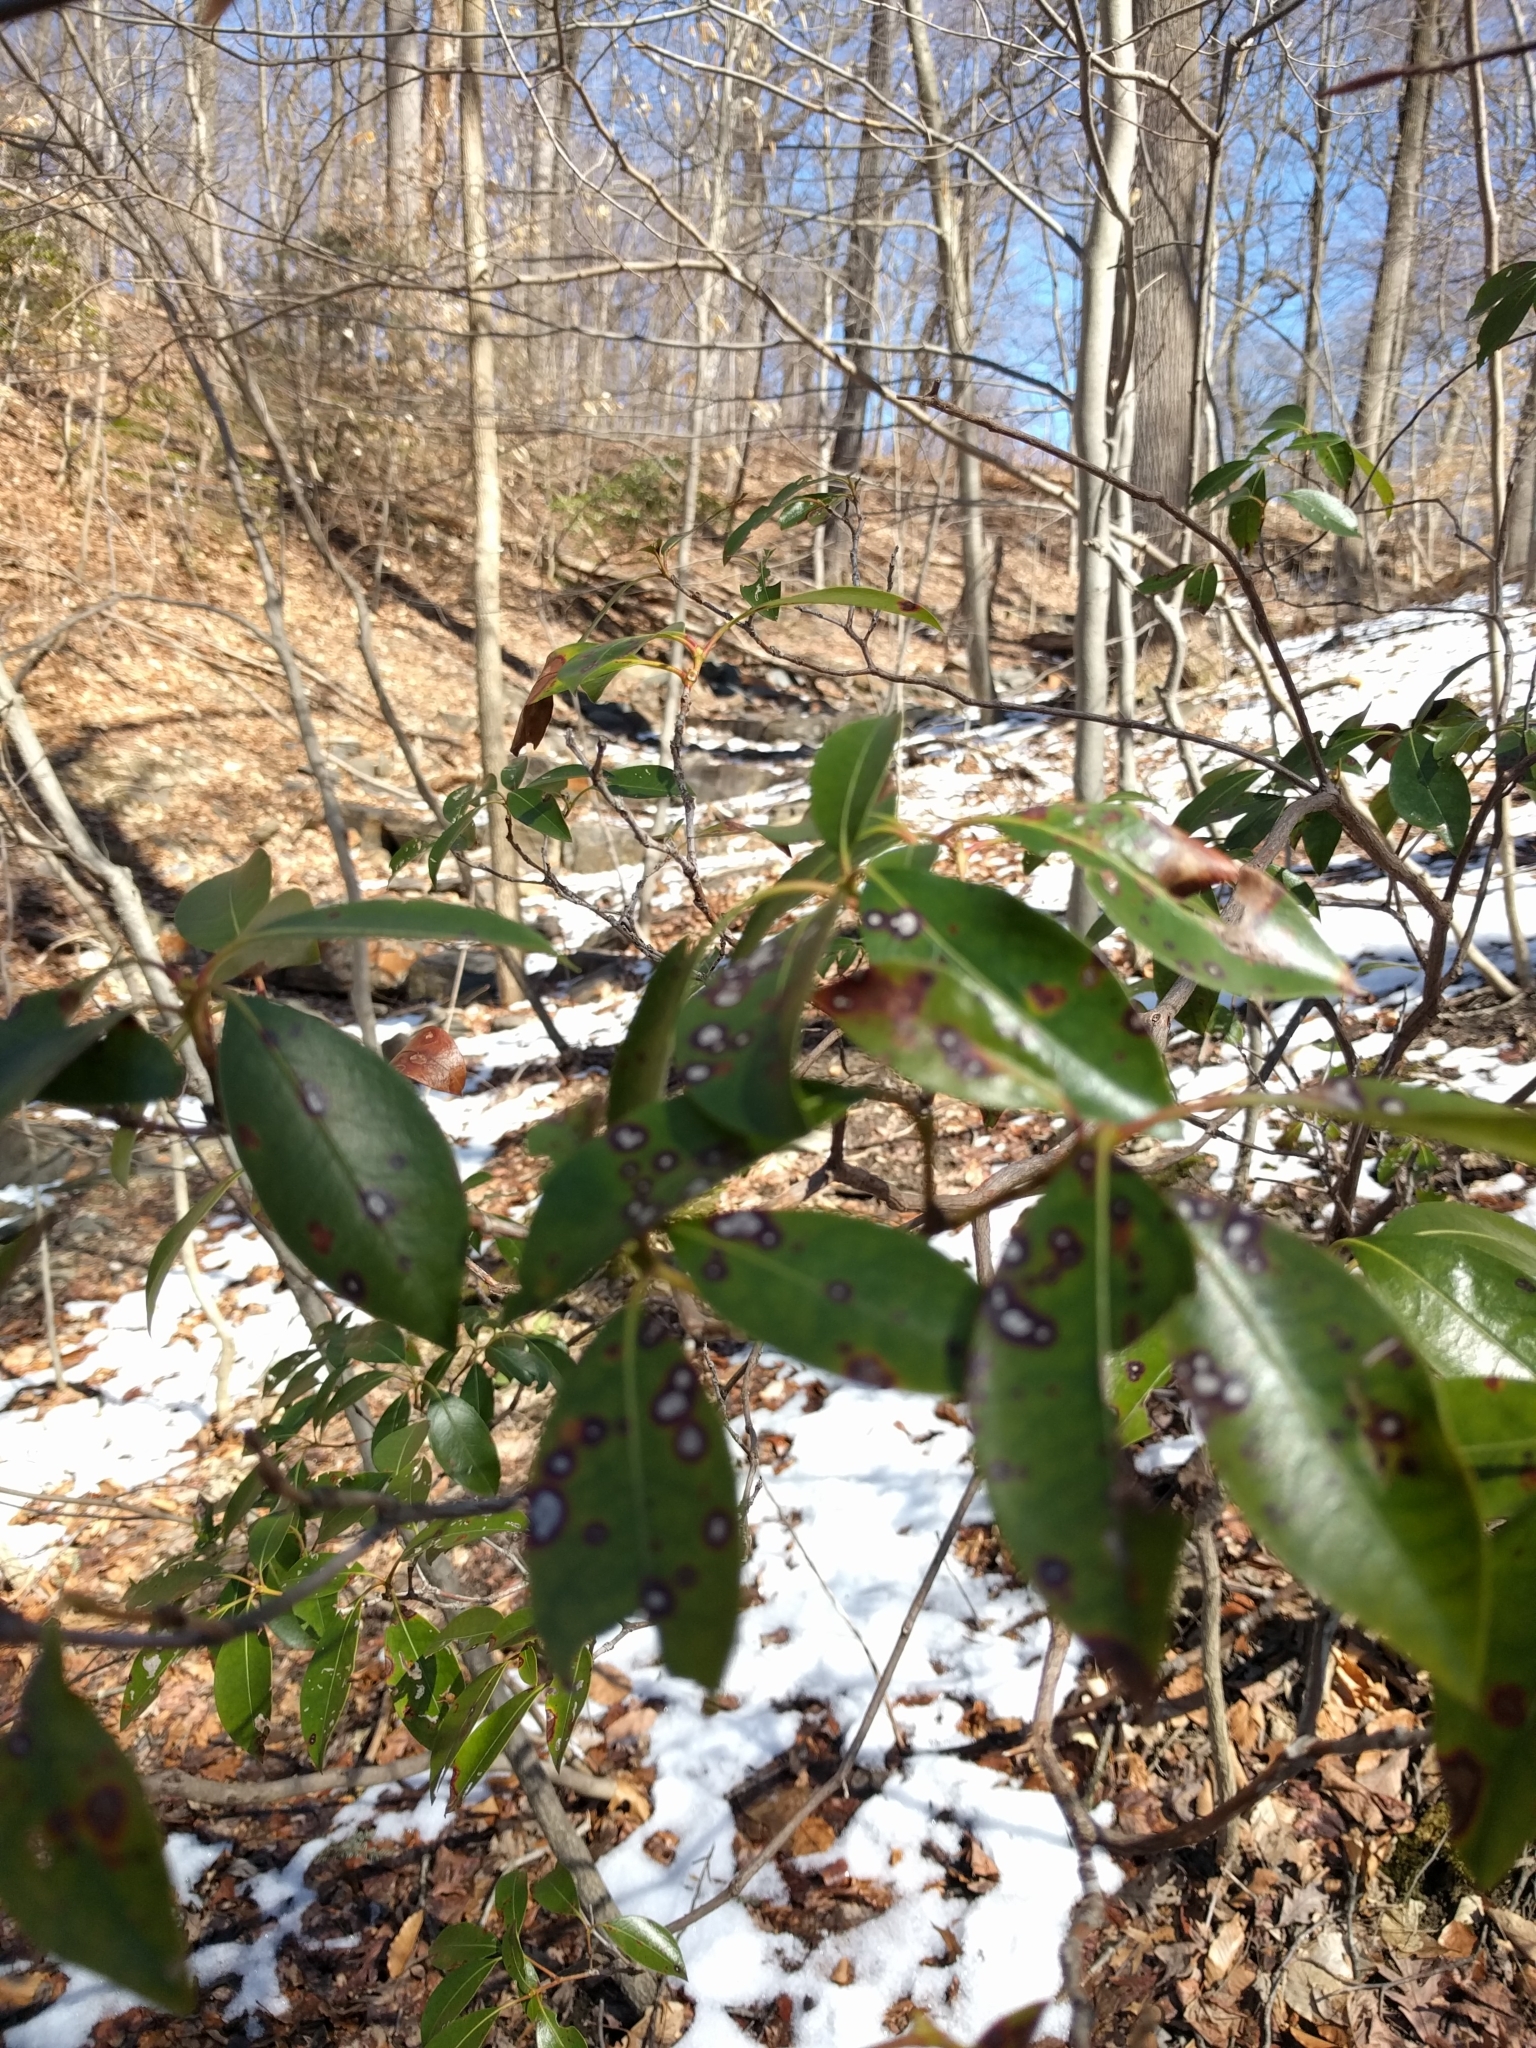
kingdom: Plantae
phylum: Tracheophyta
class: Magnoliopsida
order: Ericales
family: Ericaceae
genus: Kalmia
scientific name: Kalmia latifolia
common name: Mountain-laurel
